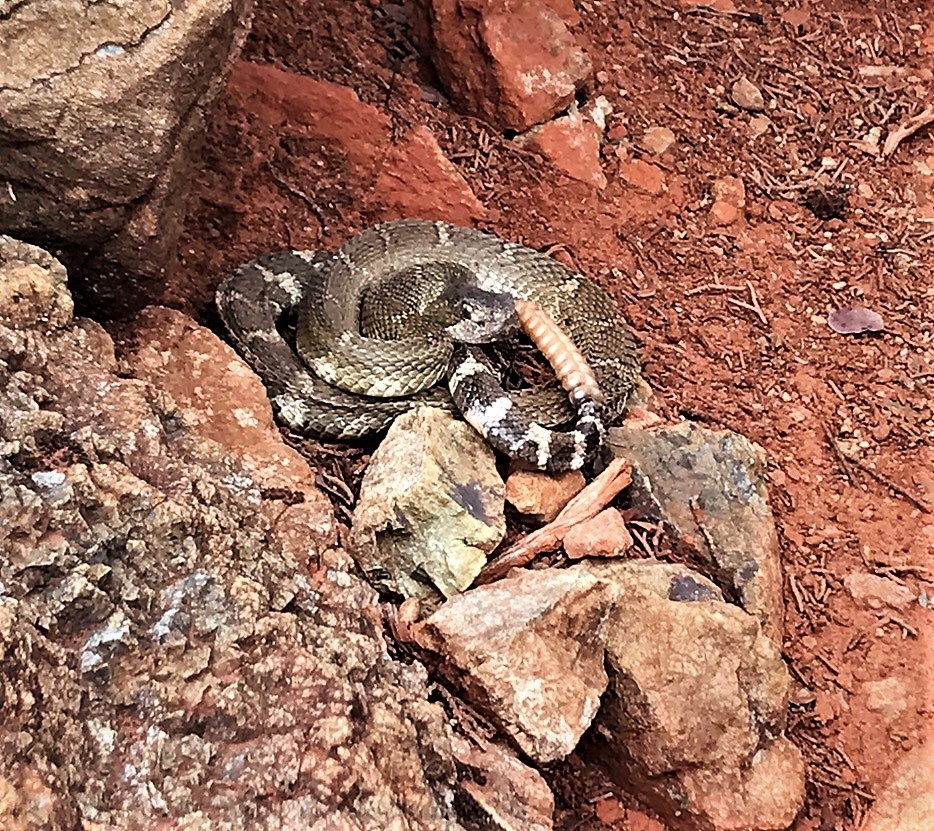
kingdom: Animalia
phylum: Chordata
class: Squamata
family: Viperidae
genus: Crotalus
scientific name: Crotalus oreganus
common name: Abyssus
